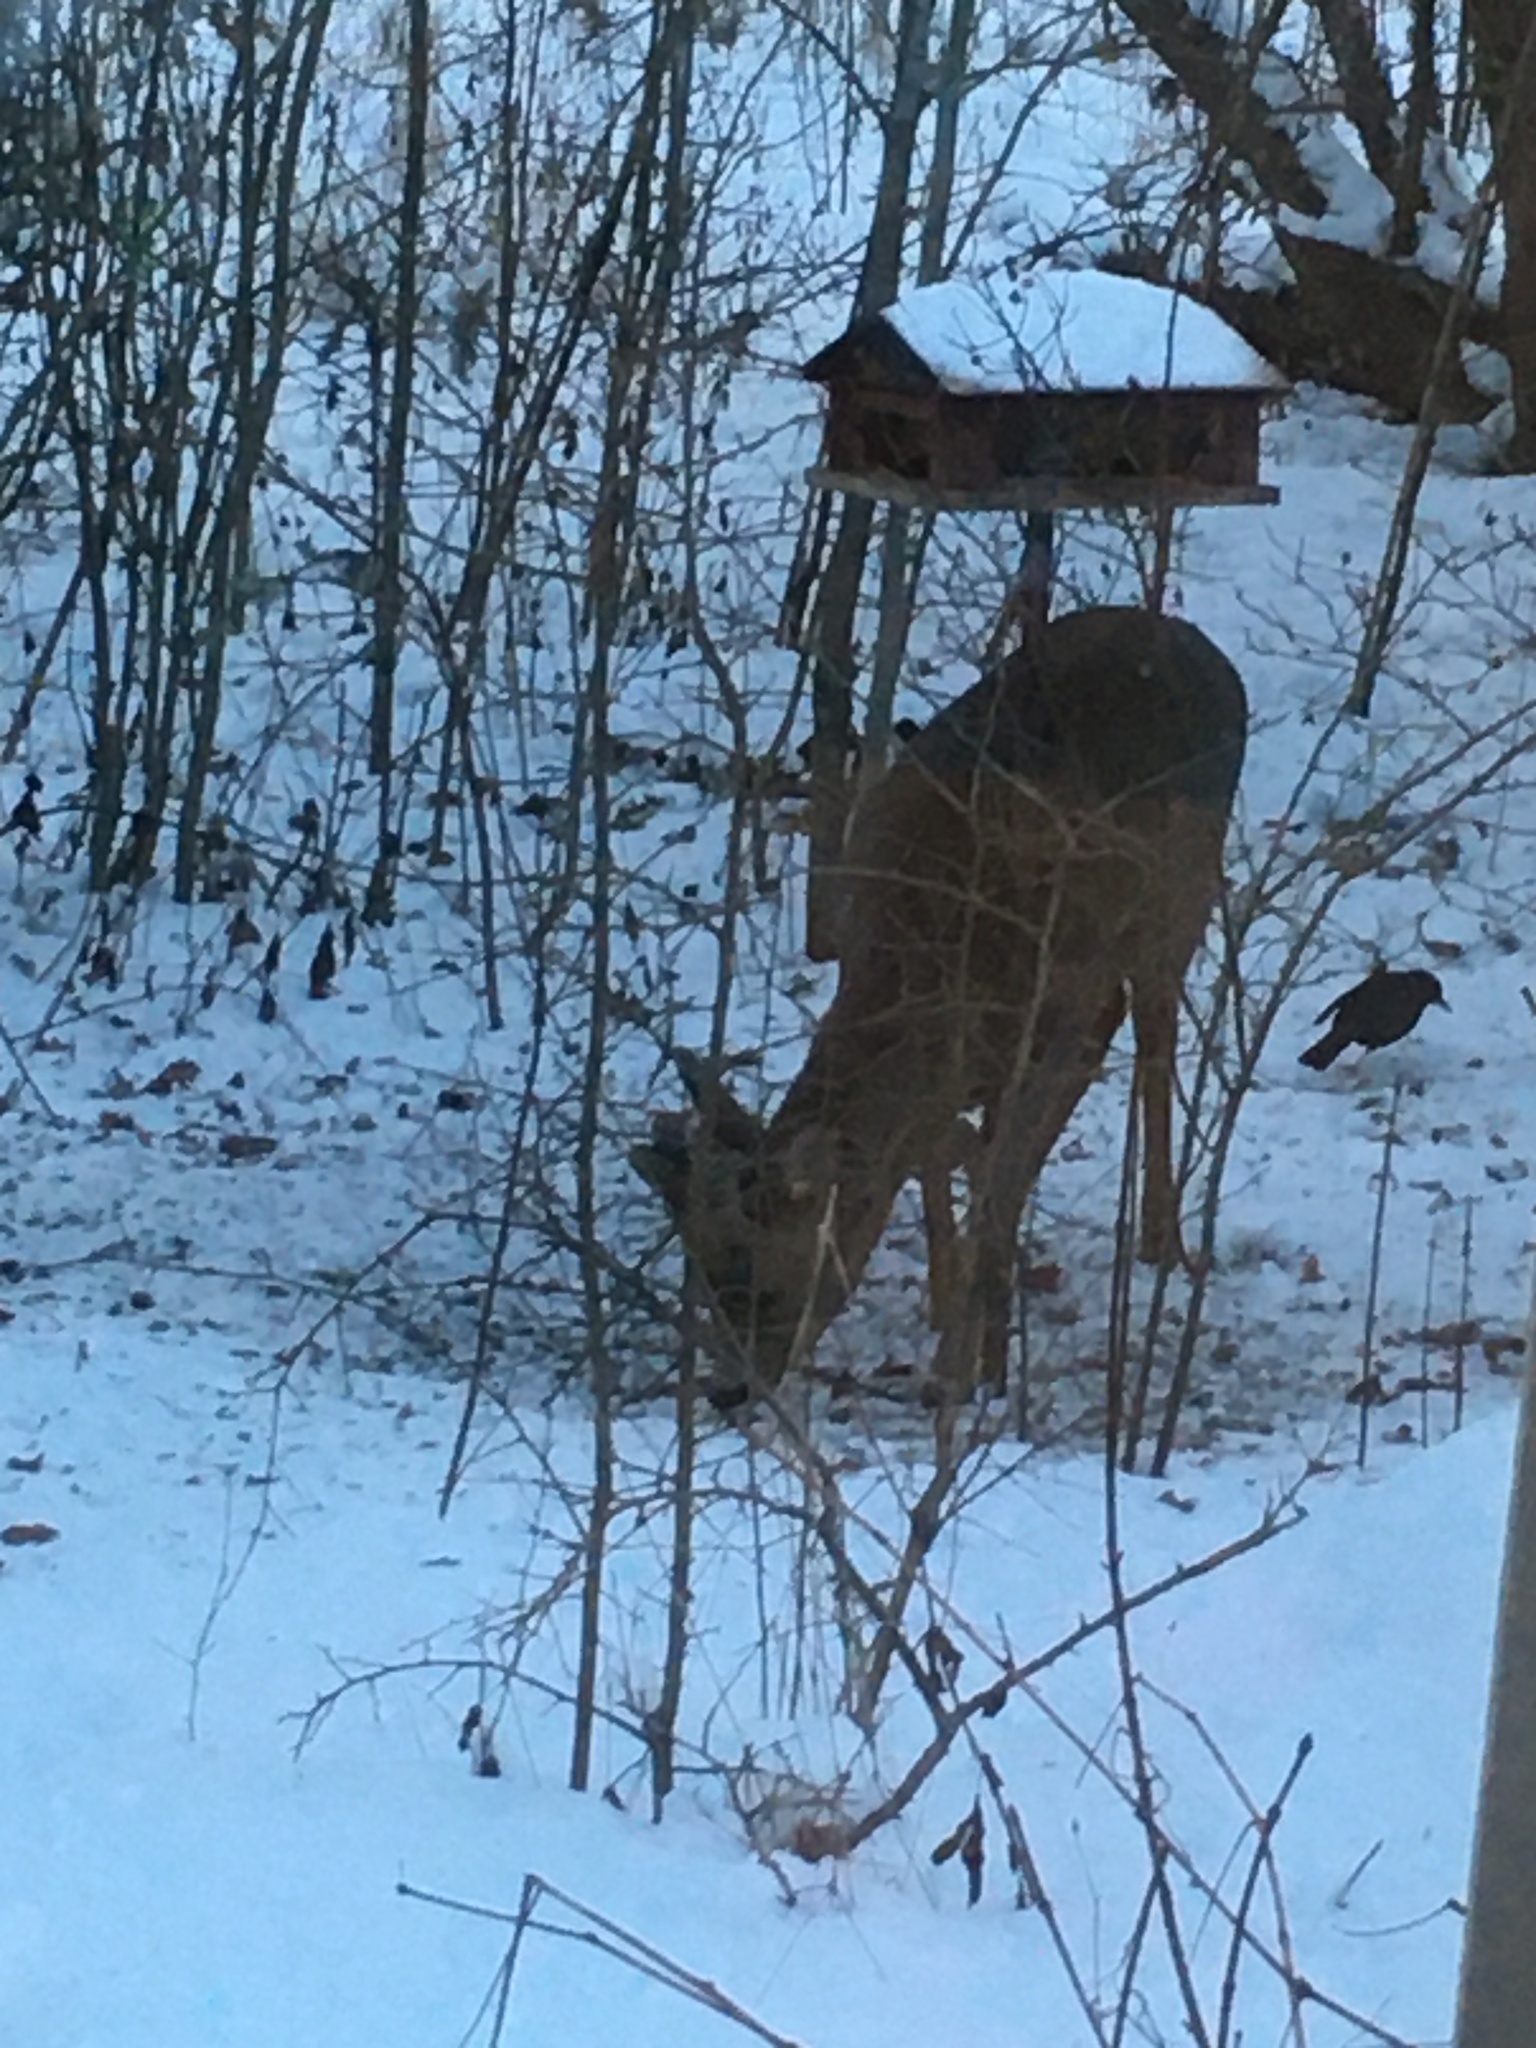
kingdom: Animalia
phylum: Chordata
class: Mammalia
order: Artiodactyla
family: Cervidae
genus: Capreolus
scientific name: Capreolus capreolus
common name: Western roe deer
